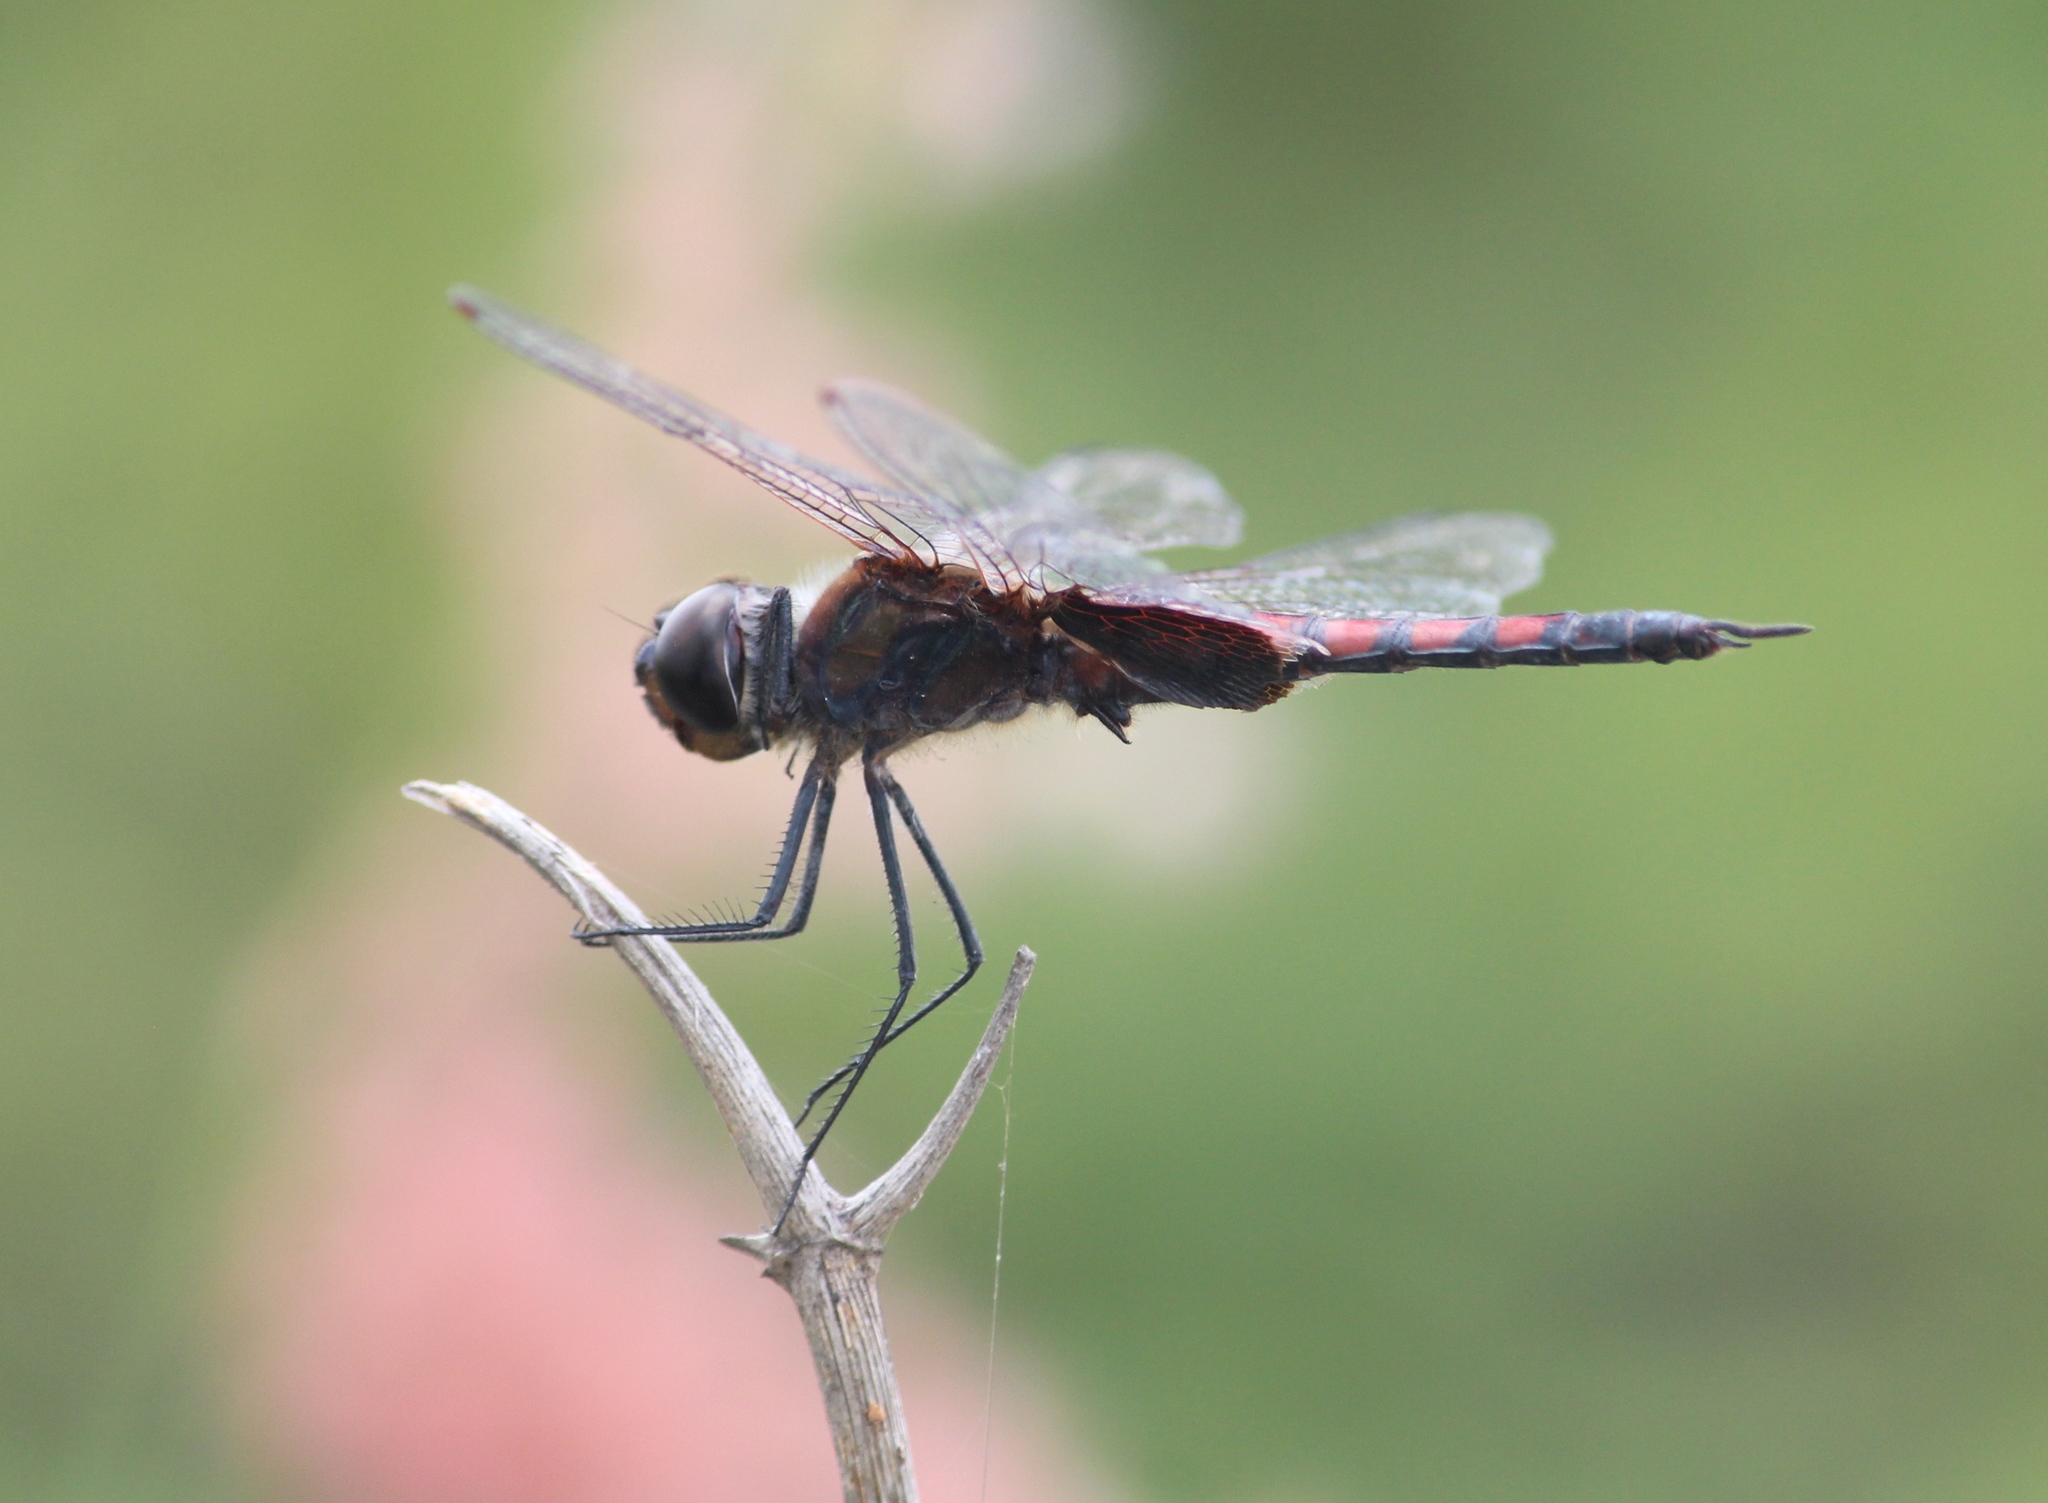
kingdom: Animalia
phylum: Arthropoda
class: Insecta
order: Odonata
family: Libellulidae
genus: Tramea
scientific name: Tramea limbata
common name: Ferruginous glider
